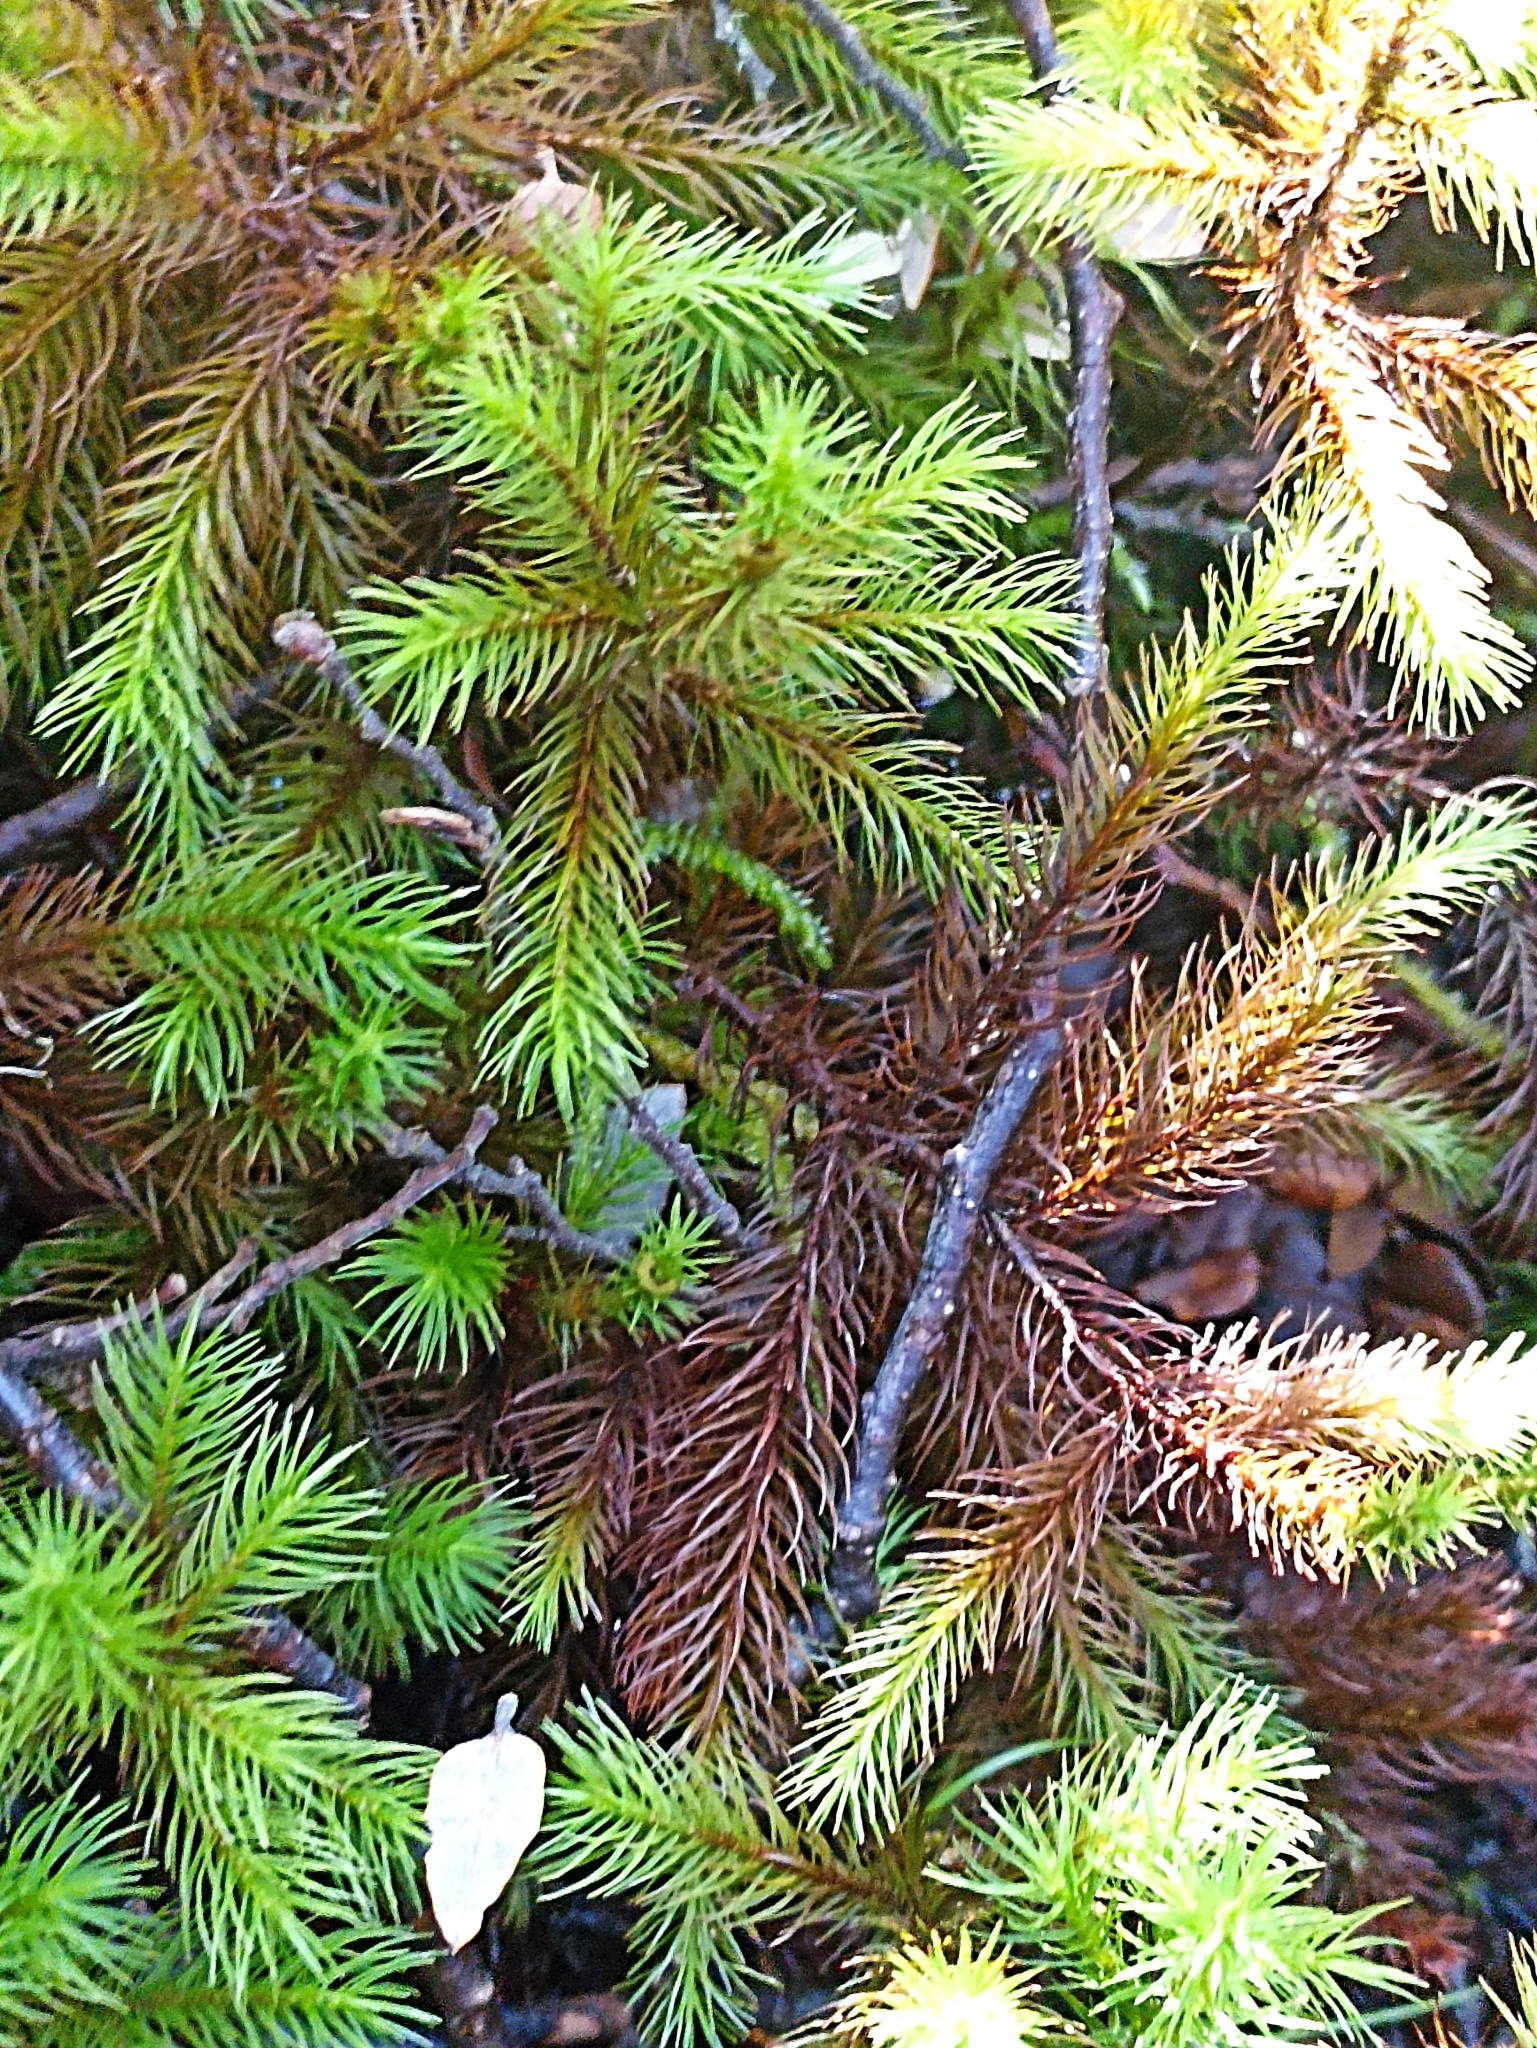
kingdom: Plantae
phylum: Bryophyta
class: Polytrichopsida
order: Polytrichales
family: Polytrichaceae
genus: Dendroligotrichum
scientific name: Dendroligotrichum tongariroense
